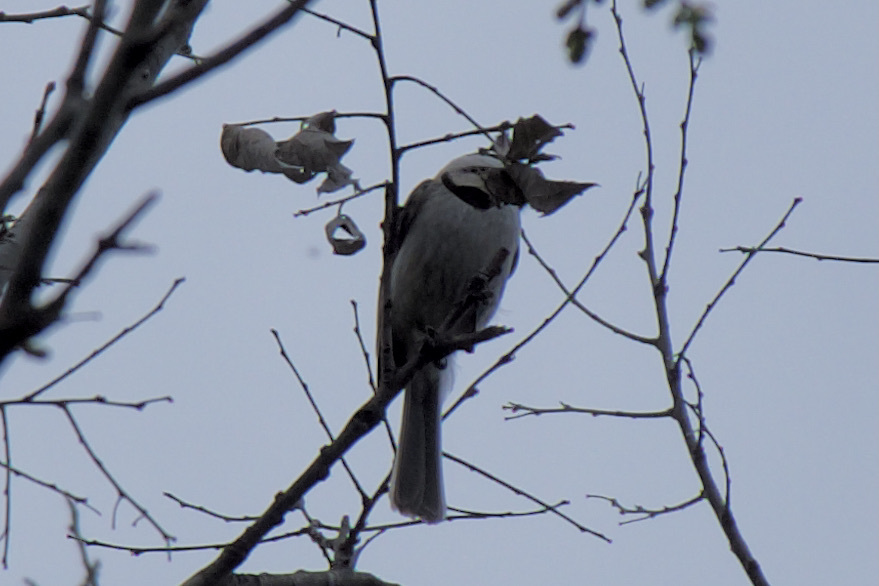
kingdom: Animalia
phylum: Chordata
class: Aves
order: Passeriformes
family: Paridae
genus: Poecile
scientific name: Poecile carolinensis
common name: Carolina chickadee
